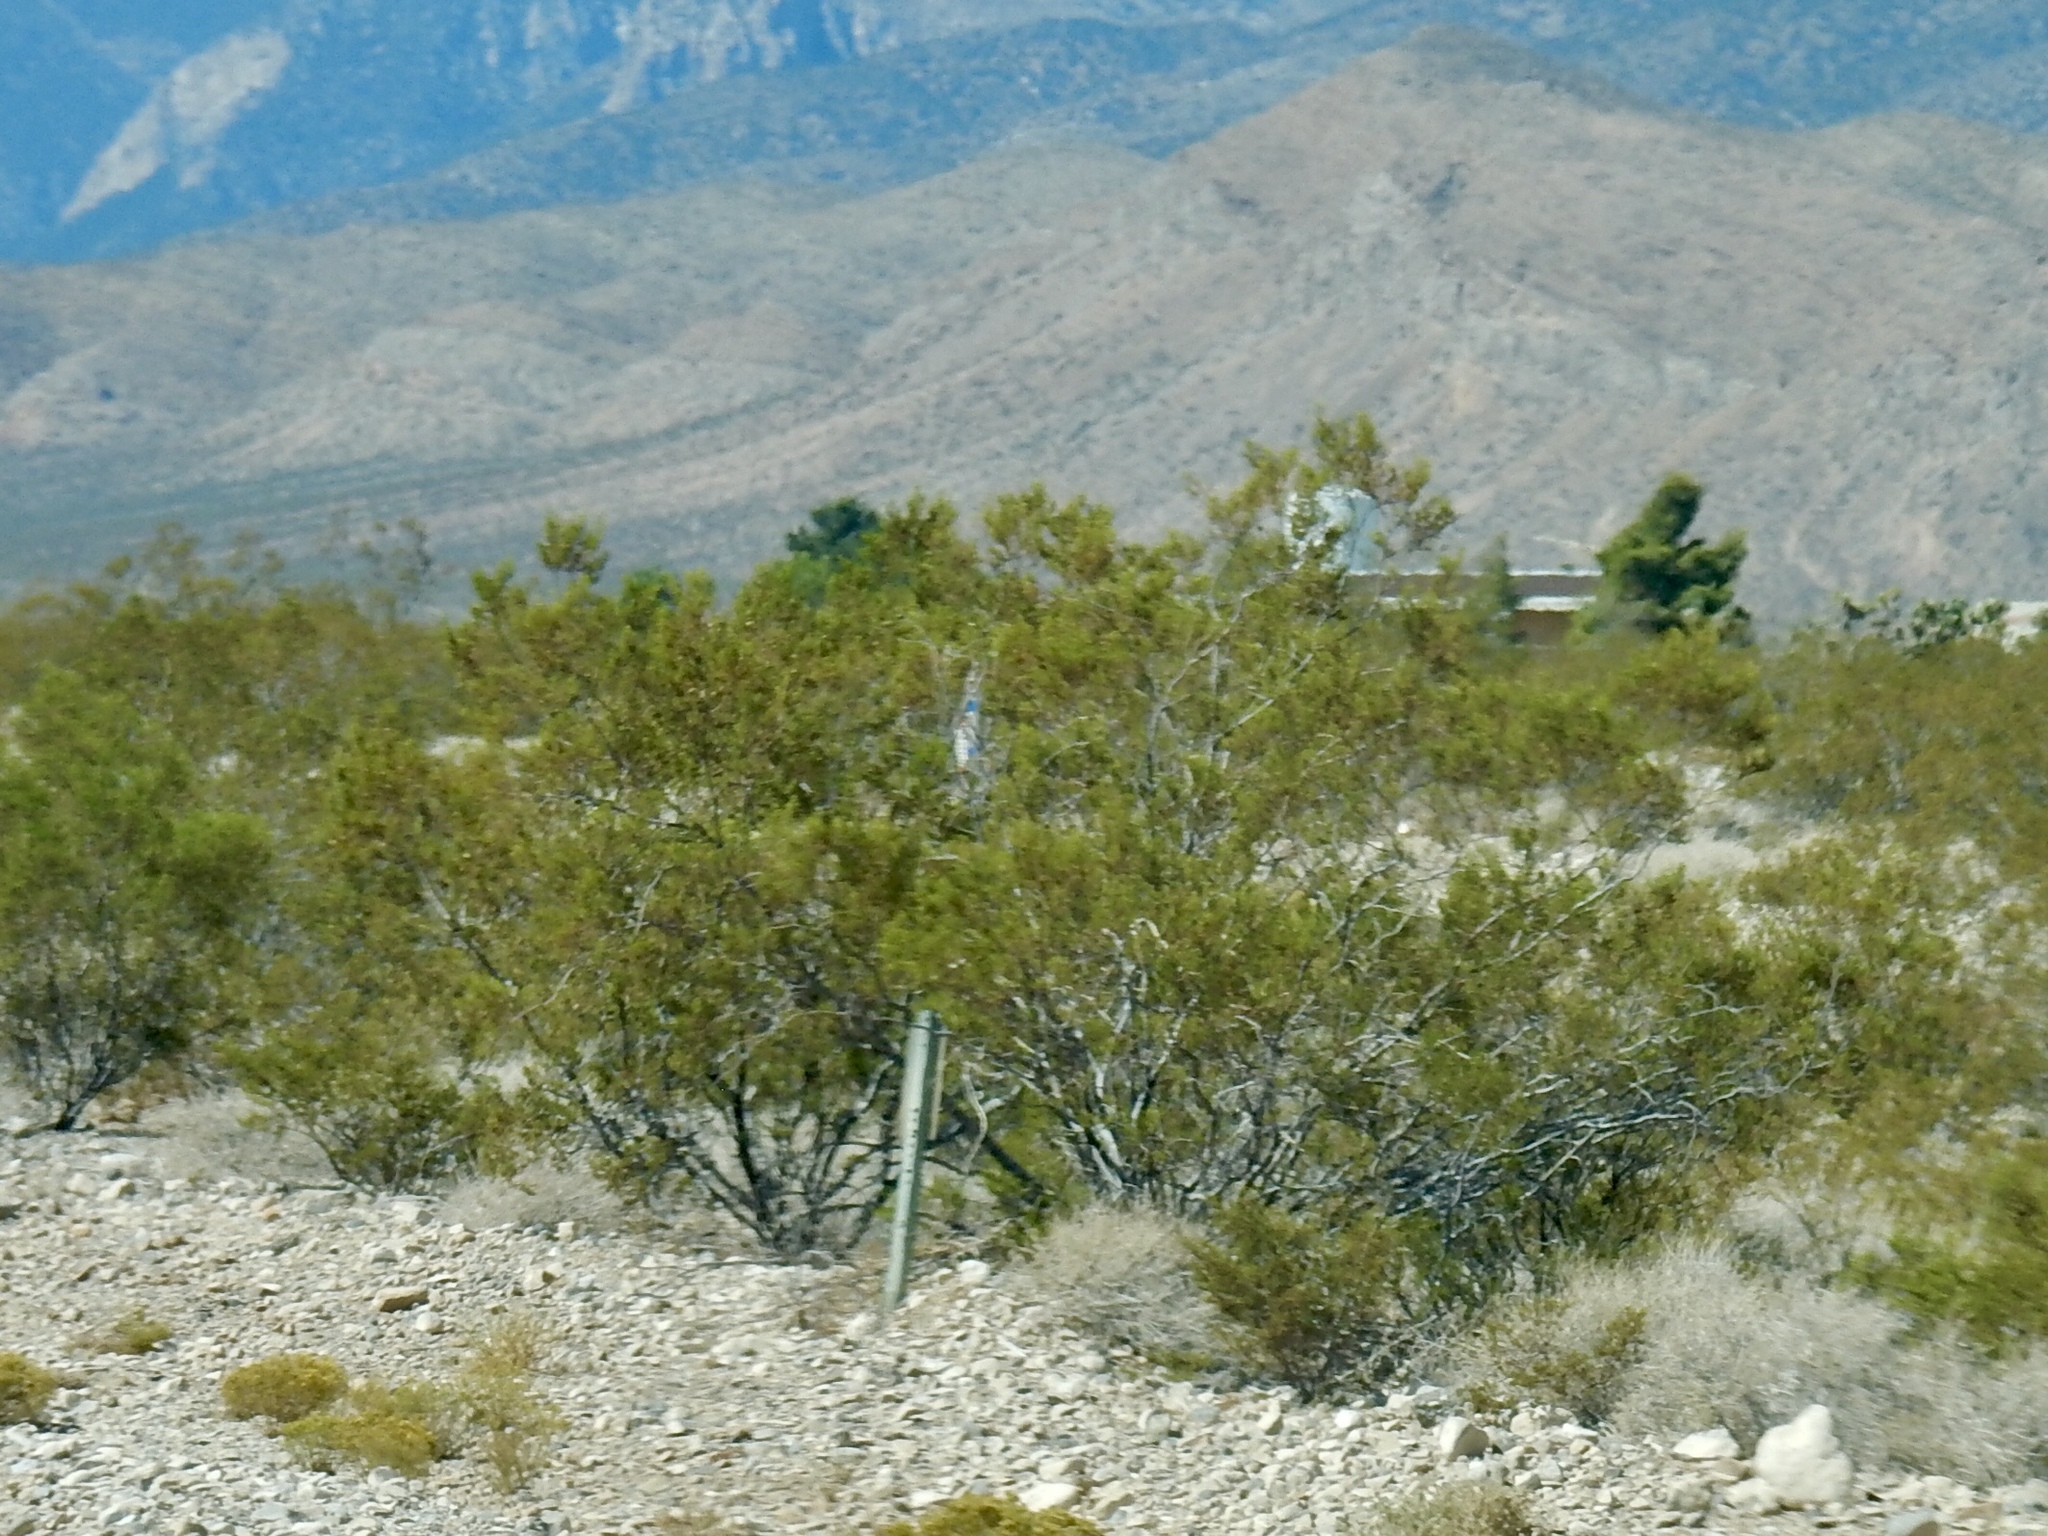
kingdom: Plantae
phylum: Tracheophyta
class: Magnoliopsida
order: Zygophyllales
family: Zygophyllaceae
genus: Larrea
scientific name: Larrea tridentata
